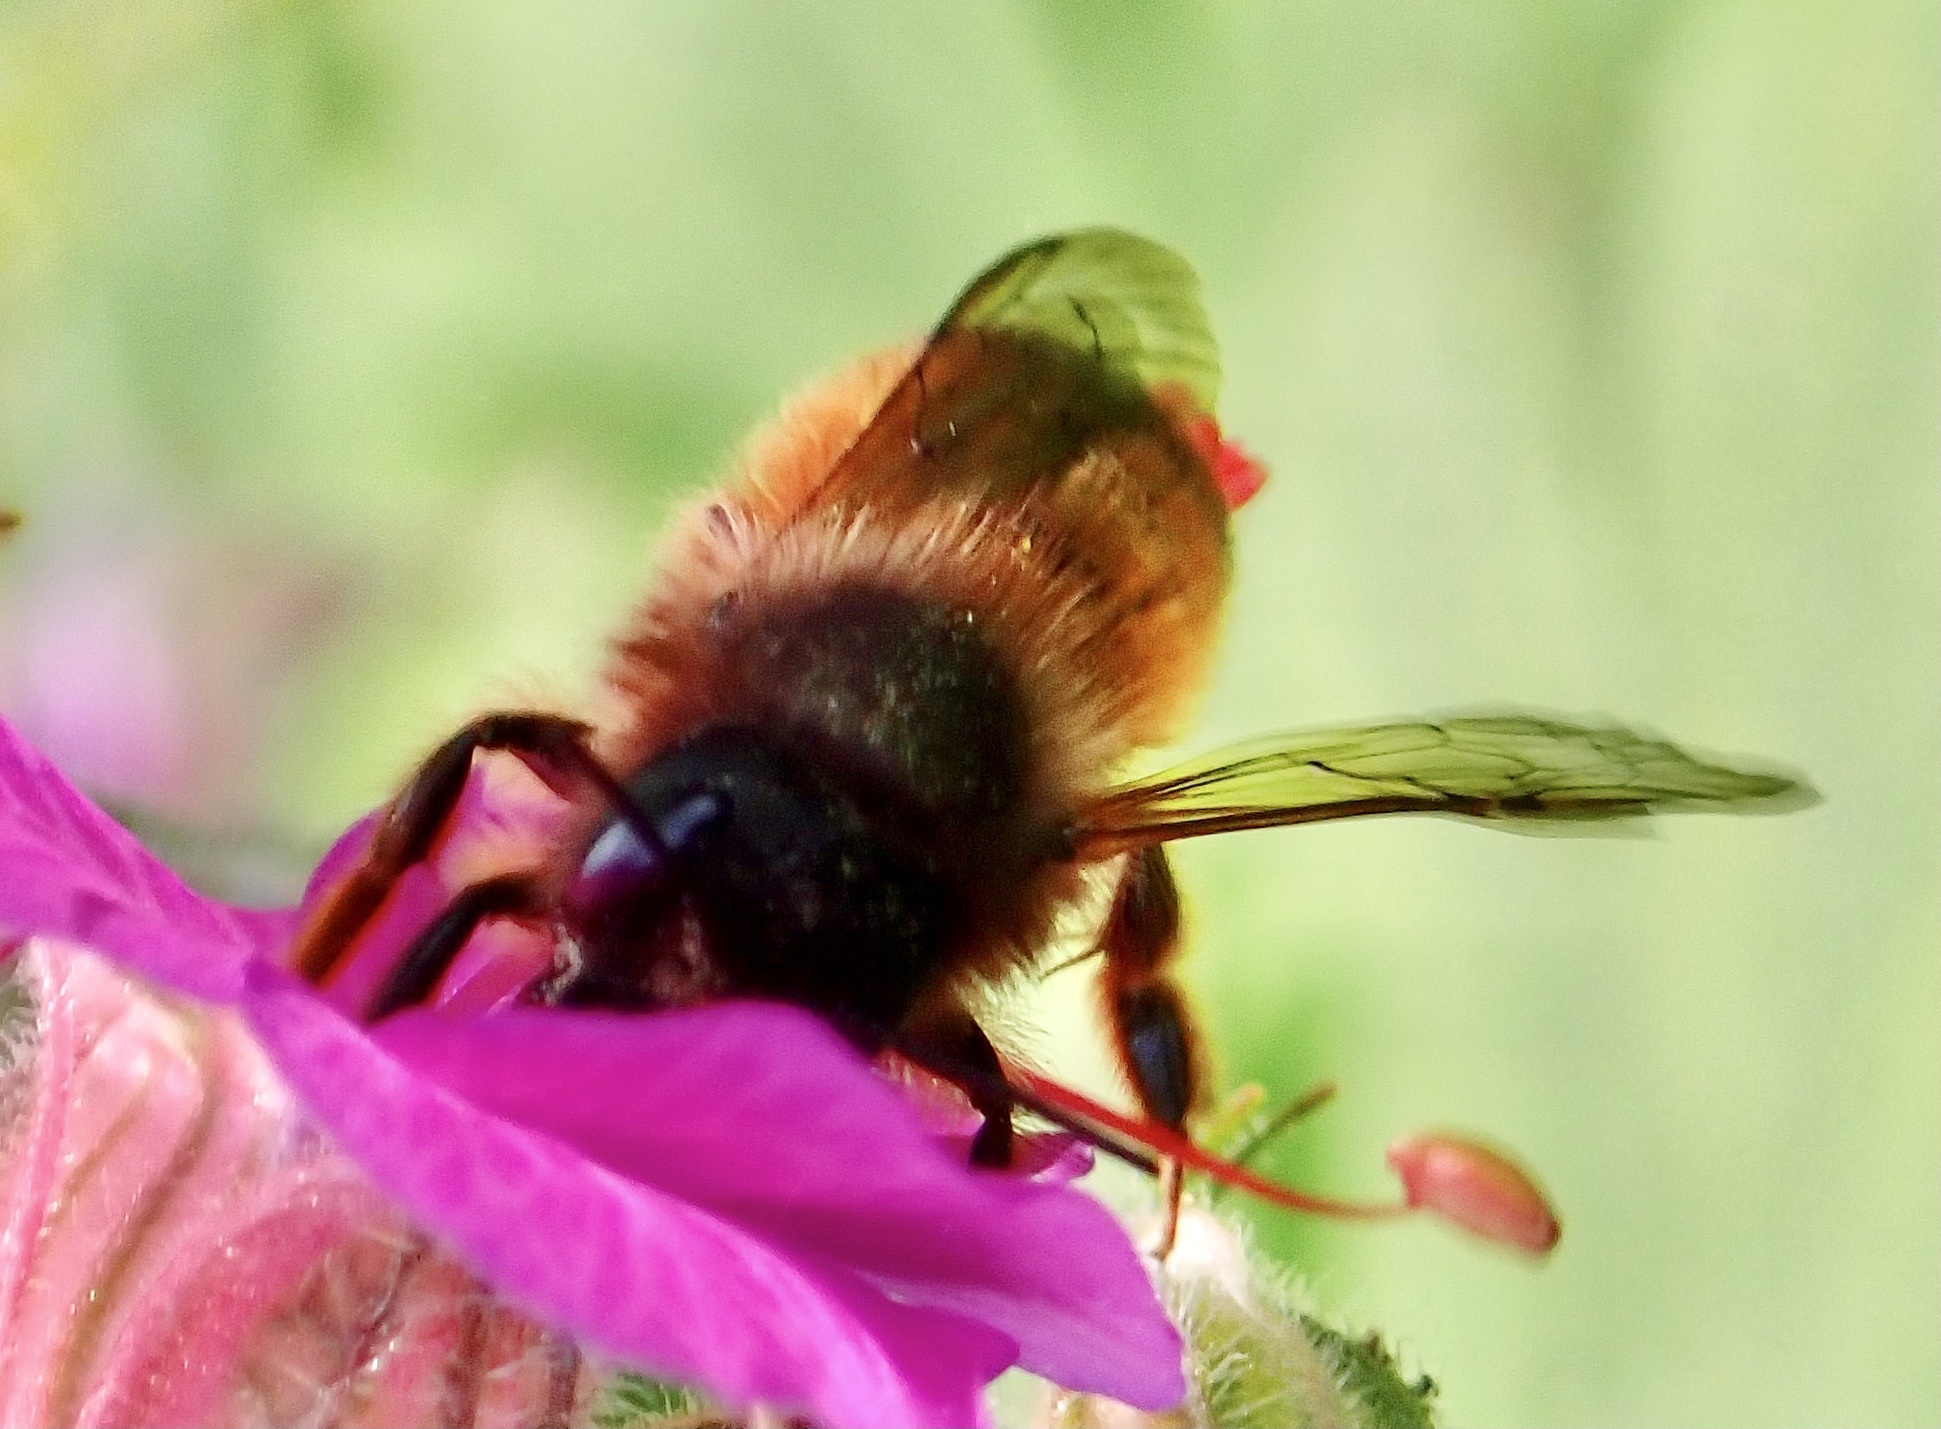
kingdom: Animalia
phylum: Arthropoda
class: Insecta
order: Hymenoptera
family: Megachilidae
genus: Osmia
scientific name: Osmia bicornis
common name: Red mason bee
